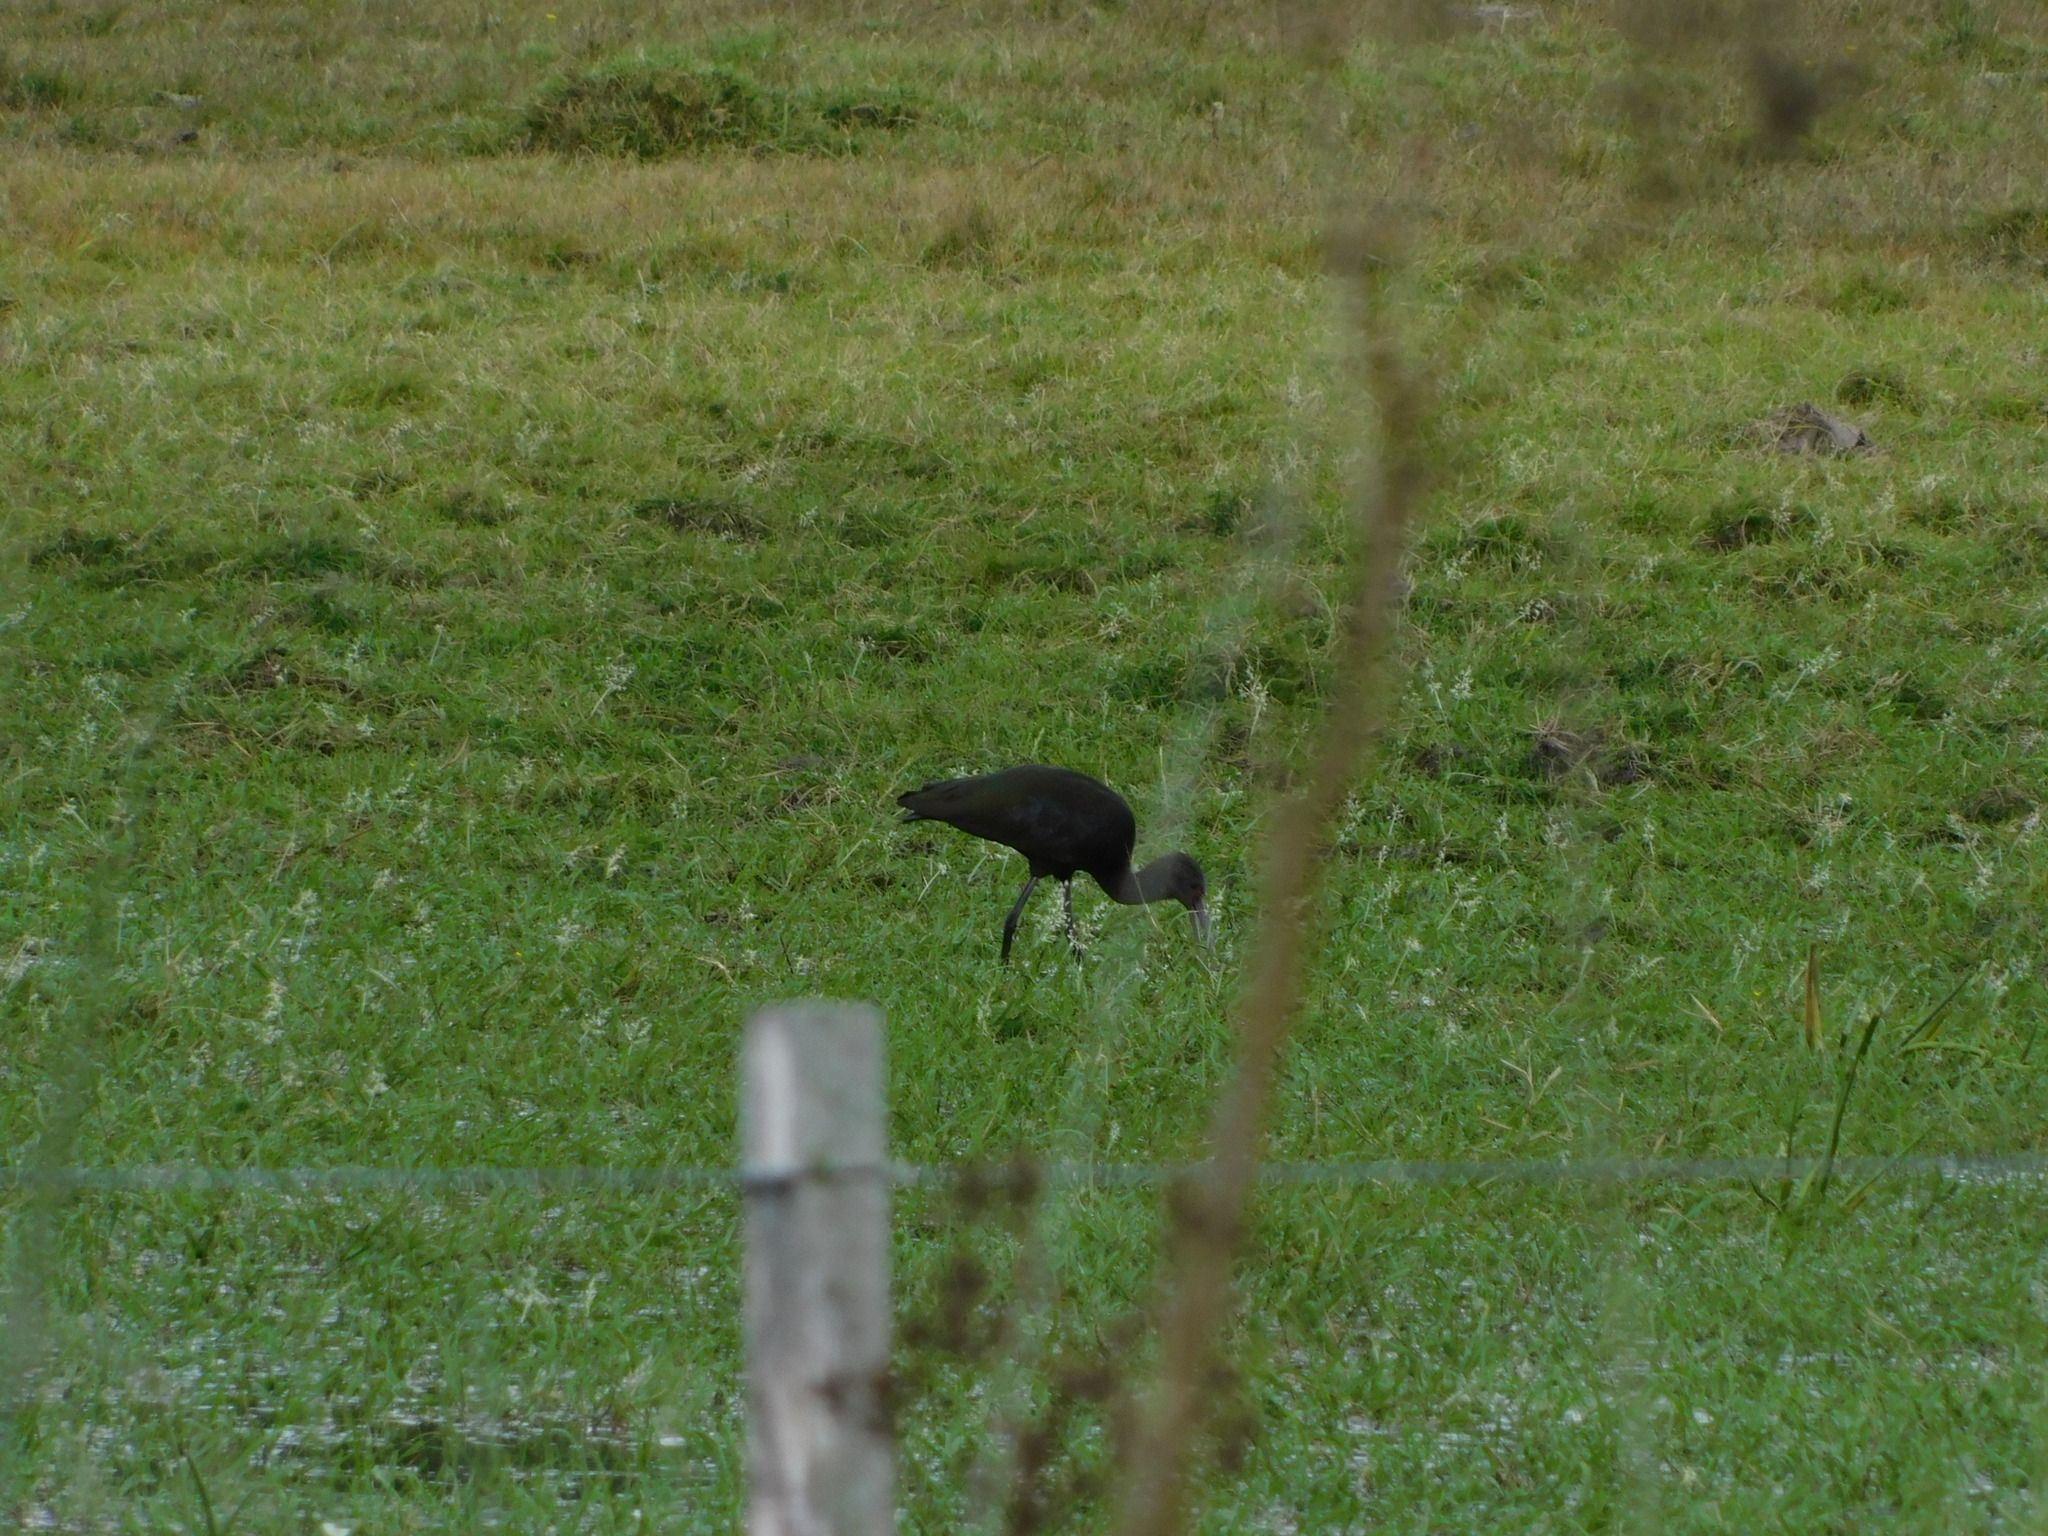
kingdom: Animalia
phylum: Chordata
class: Aves
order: Pelecaniformes
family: Threskiornithidae
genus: Plegadis
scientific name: Plegadis chihi
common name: White-faced ibis
